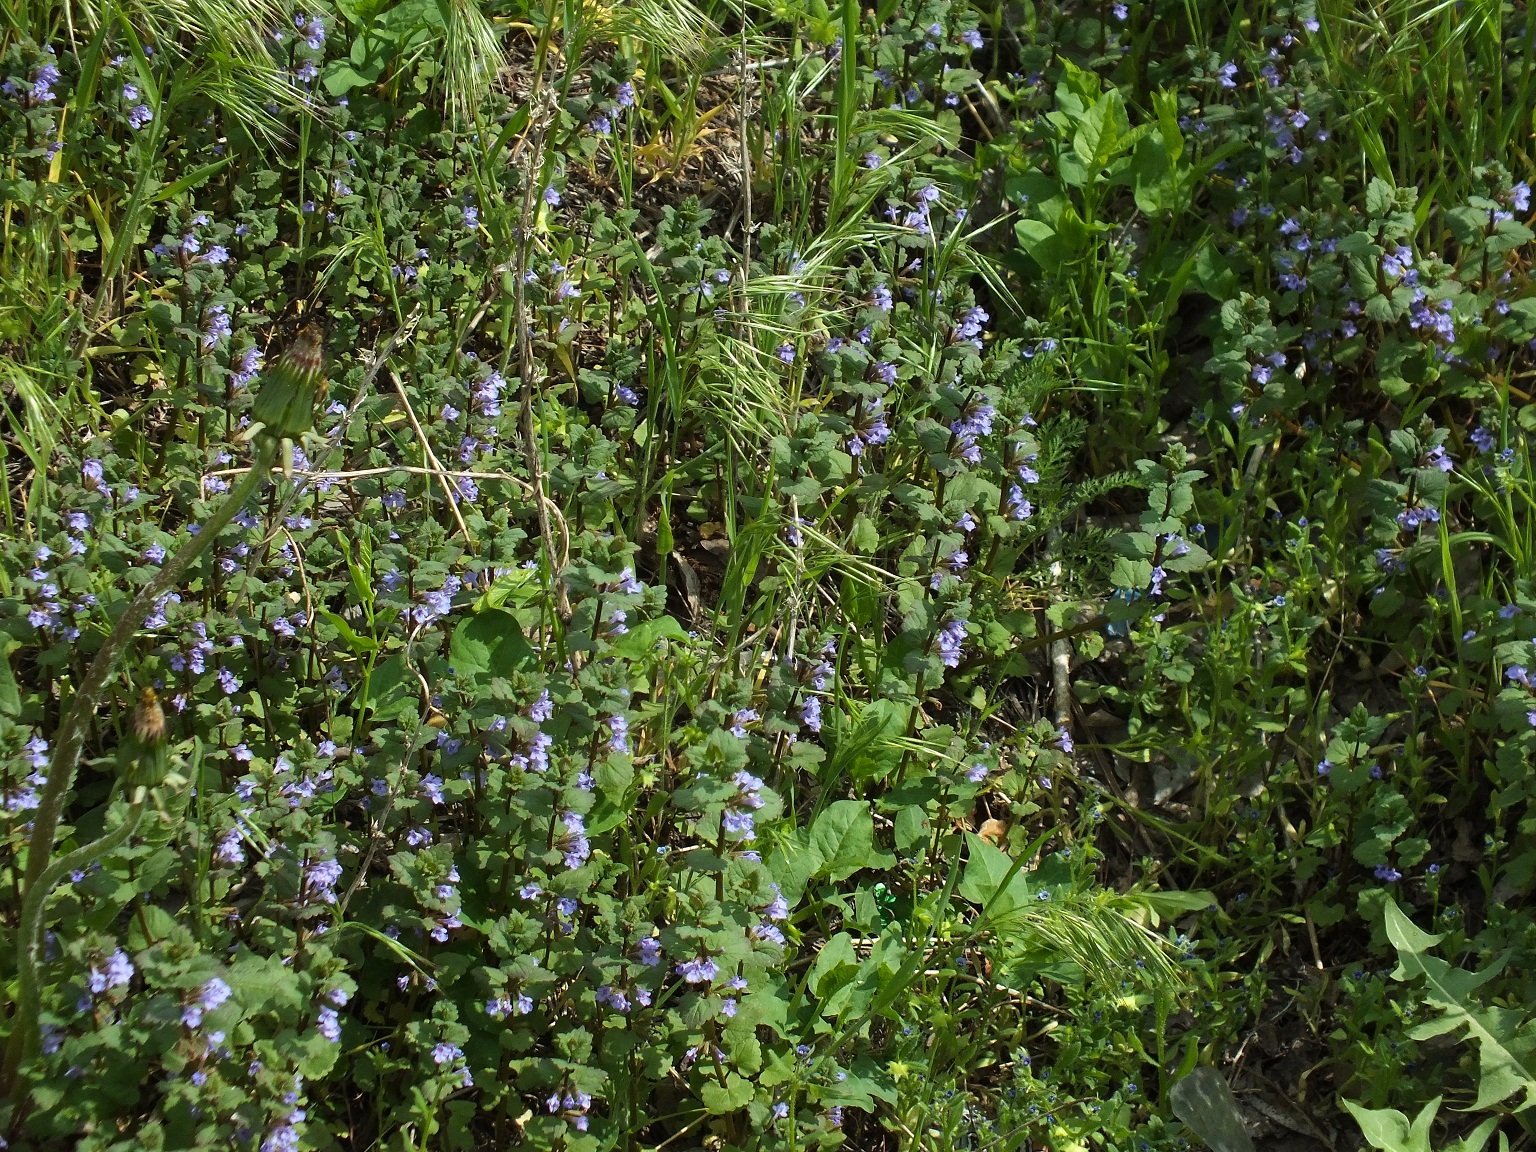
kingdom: Plantae
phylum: Tracheophyta
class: Magnoliopsida
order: Lamiales
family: Lamiaceae
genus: Glechoma
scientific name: Glechoma hederacea
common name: Ground ivy
